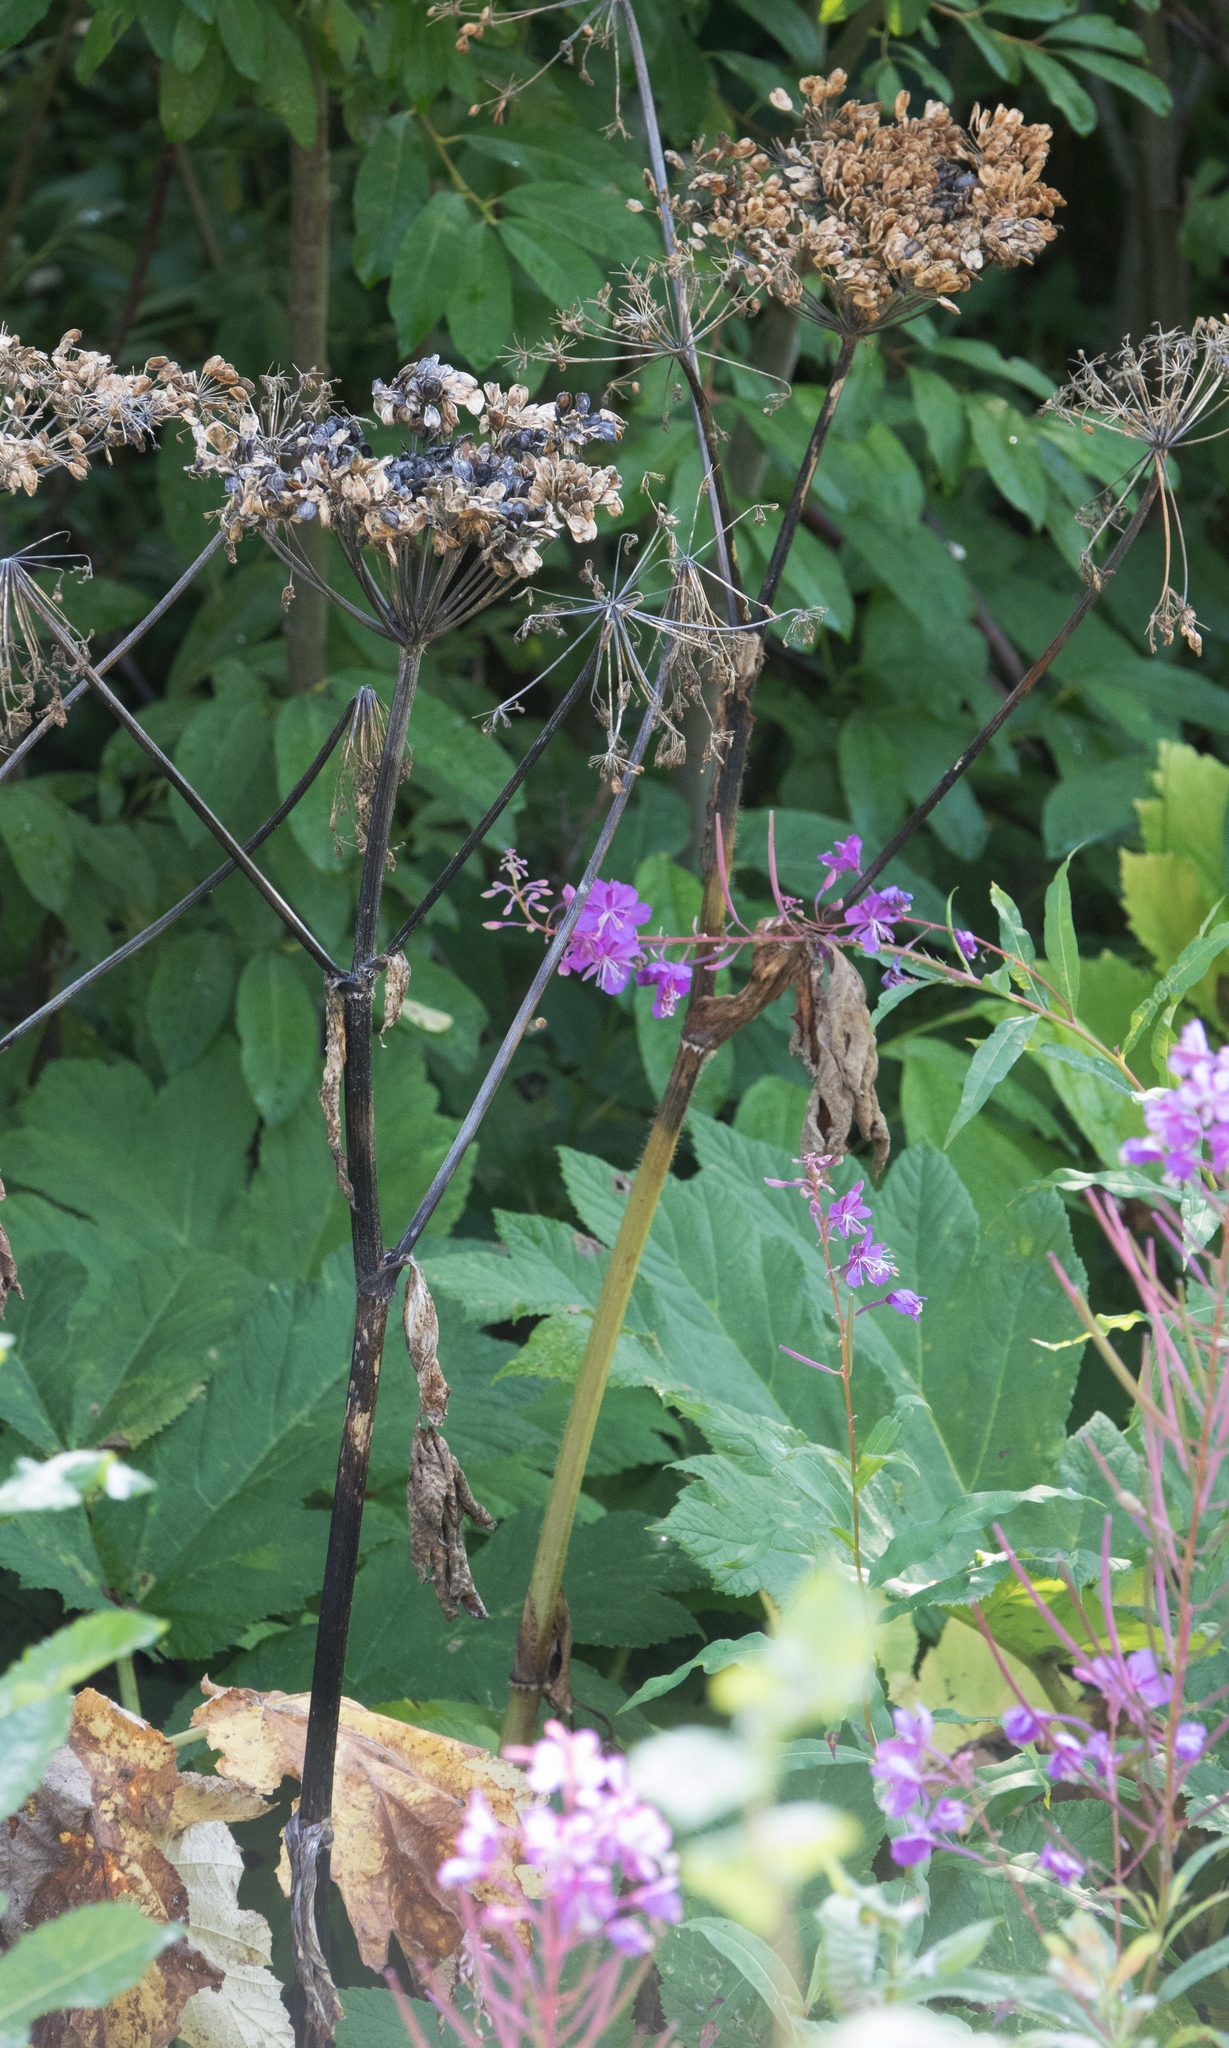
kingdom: Plantae
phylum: Tracheophyta
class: Magnoliopsida
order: Apiales
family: Apiaceae
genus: Heracleum
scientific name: Heracleum maximum
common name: American cow parsnip
